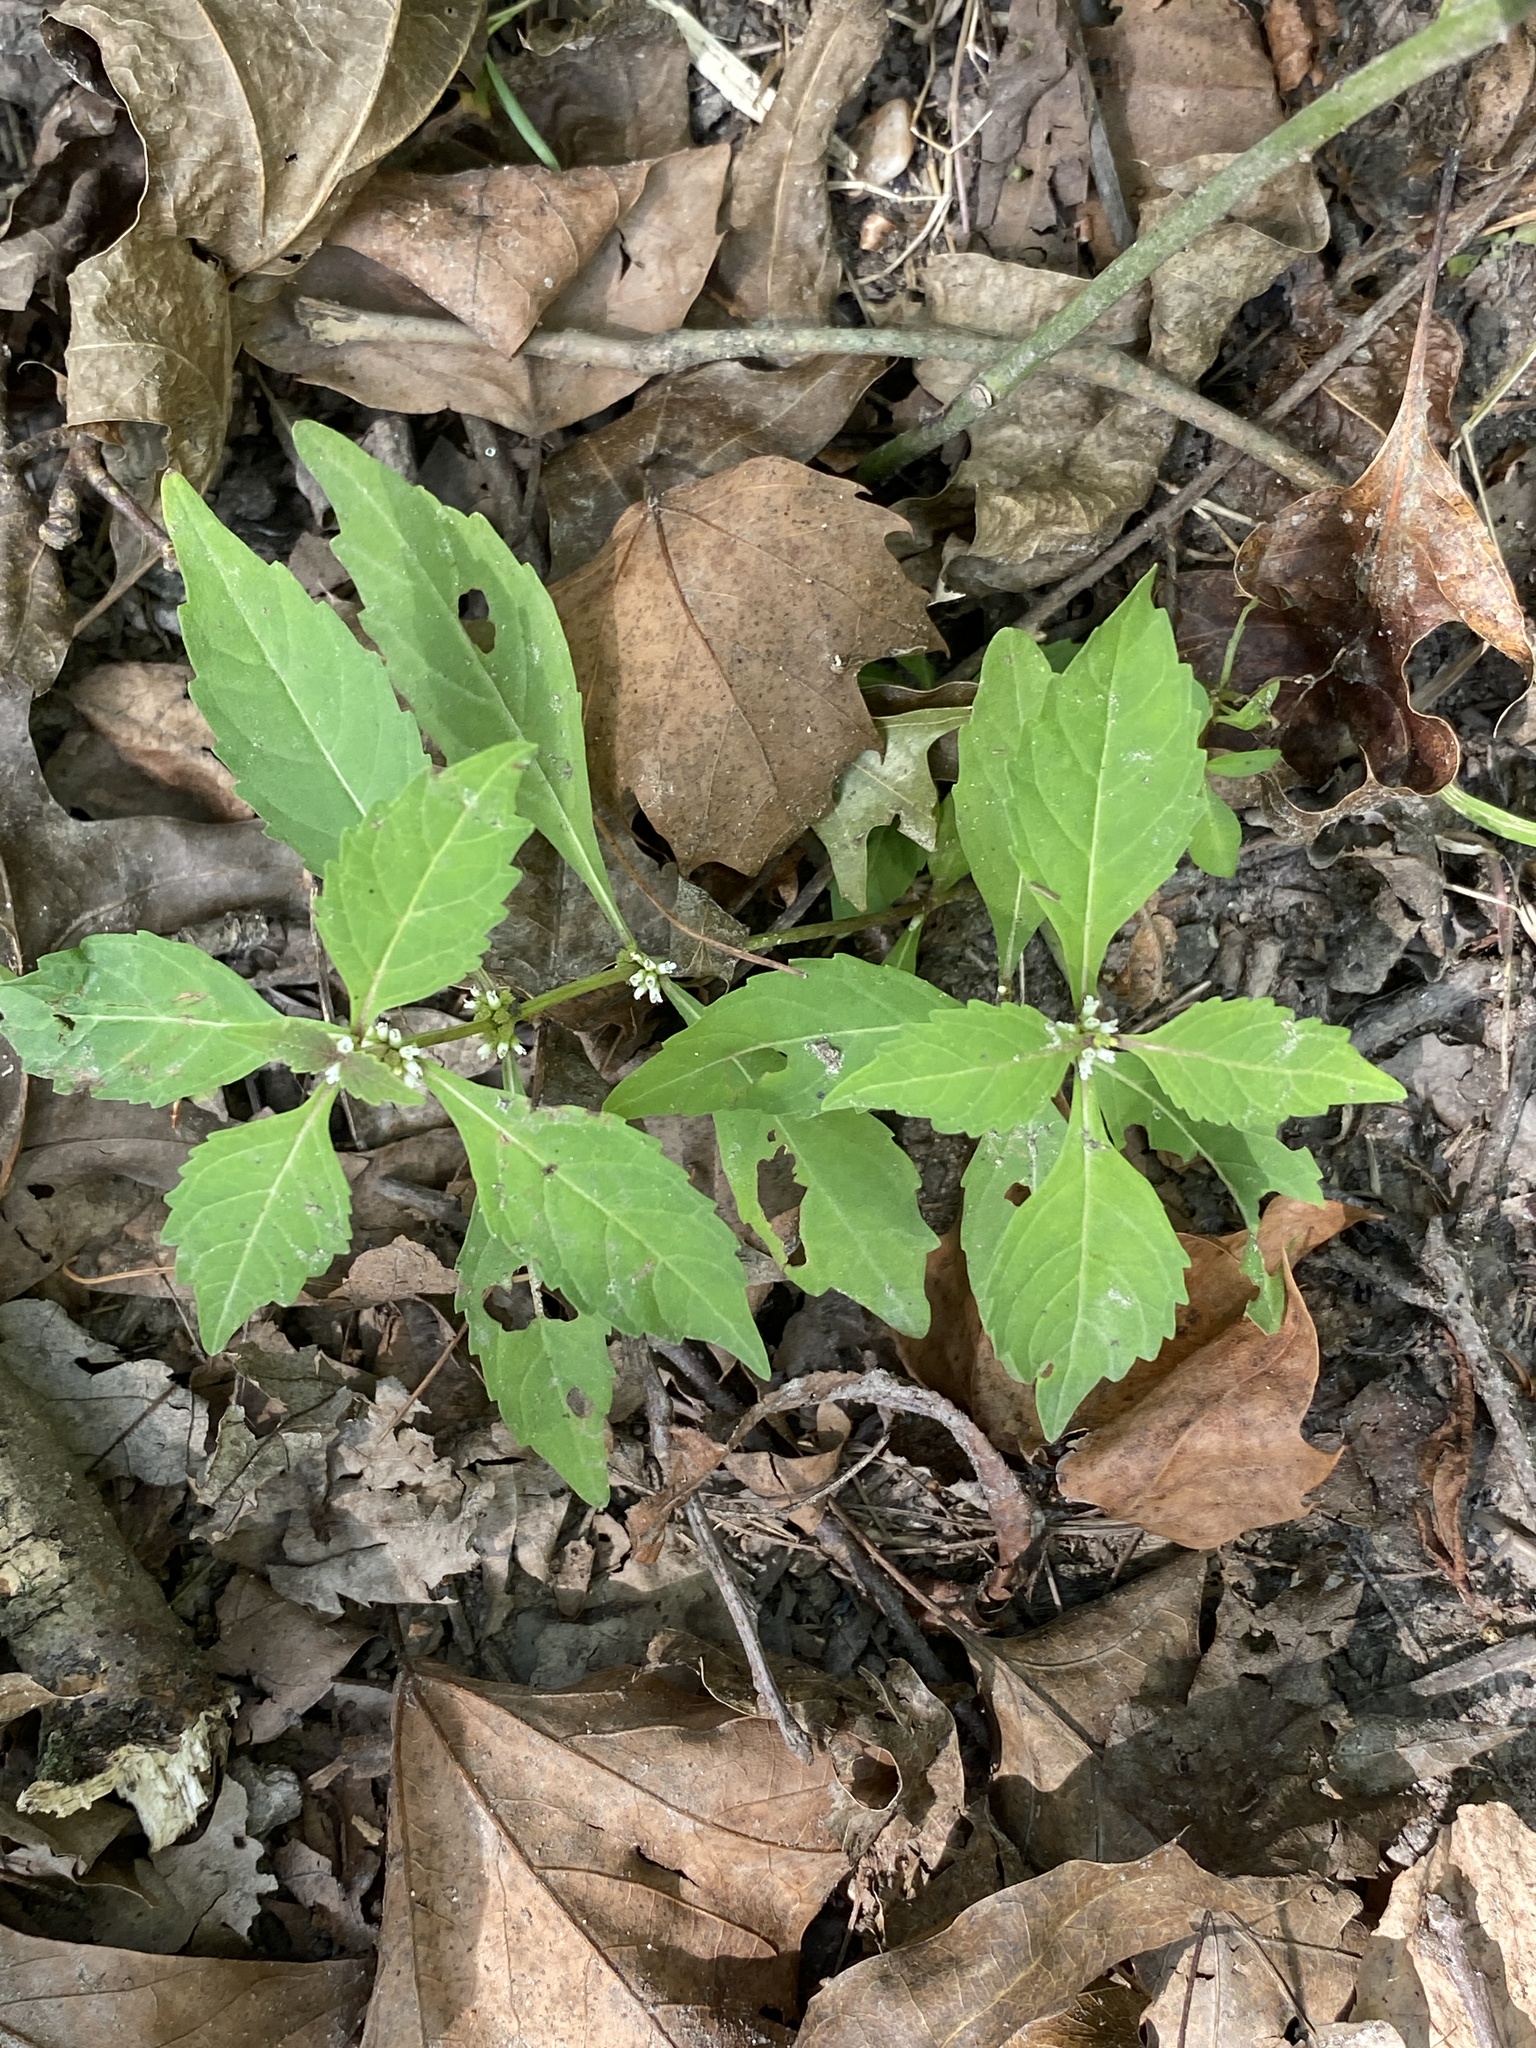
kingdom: Plantae
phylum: Tracheophyta
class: Magnoliopsida
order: Lamiales
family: Lamiaceae
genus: Lycopus
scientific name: Lycopus uniflorus
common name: Northern bugleweed
